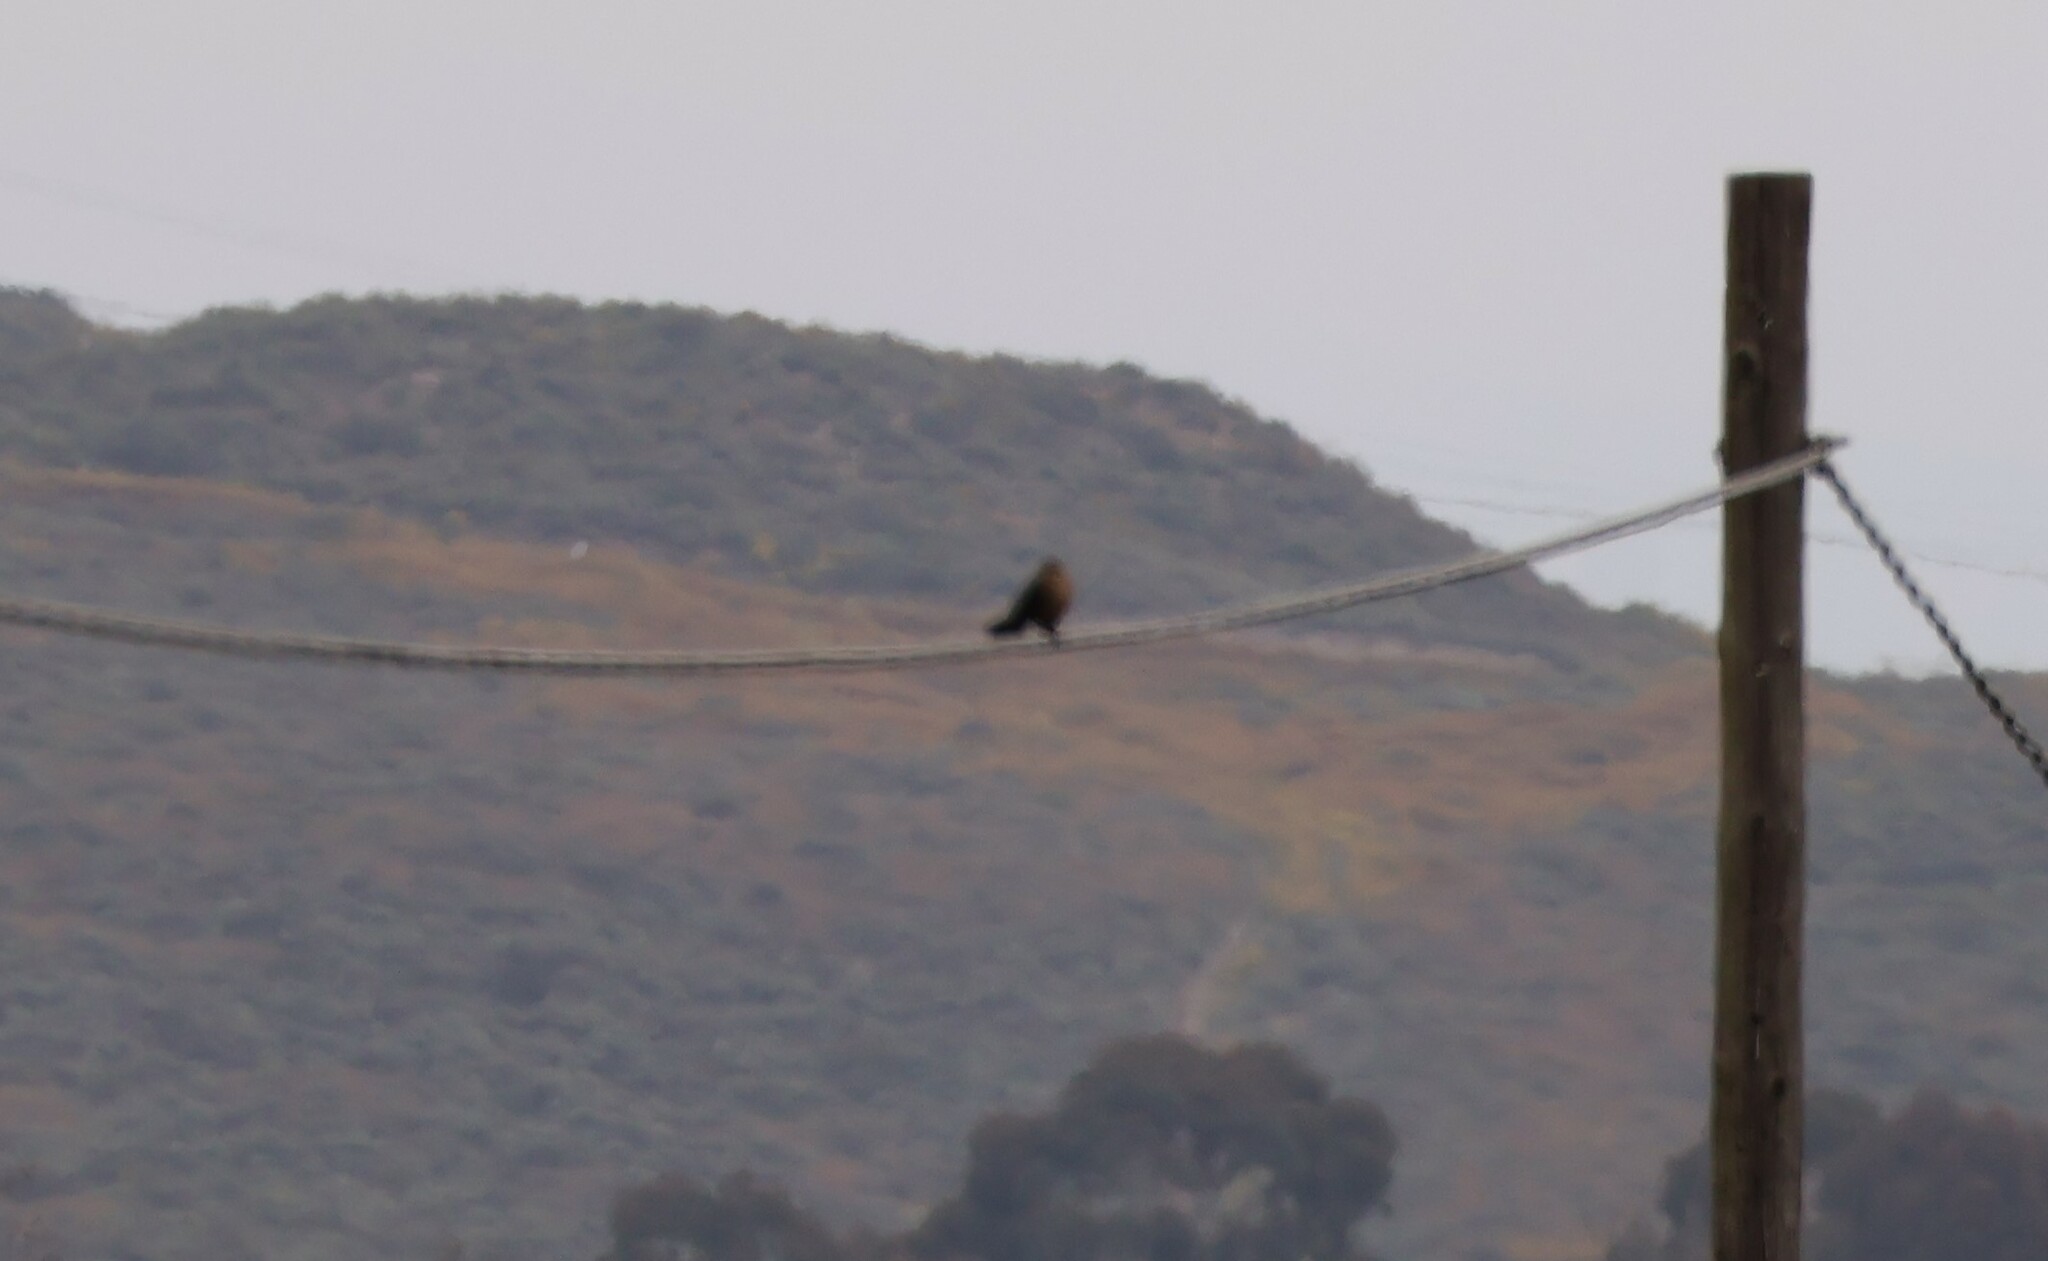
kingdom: Animalia
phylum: Chordata
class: Aves
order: Passeriformes
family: Icteridae
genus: Quiscalus
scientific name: Quiscalus mexicanus
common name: Great-tailed grackle
